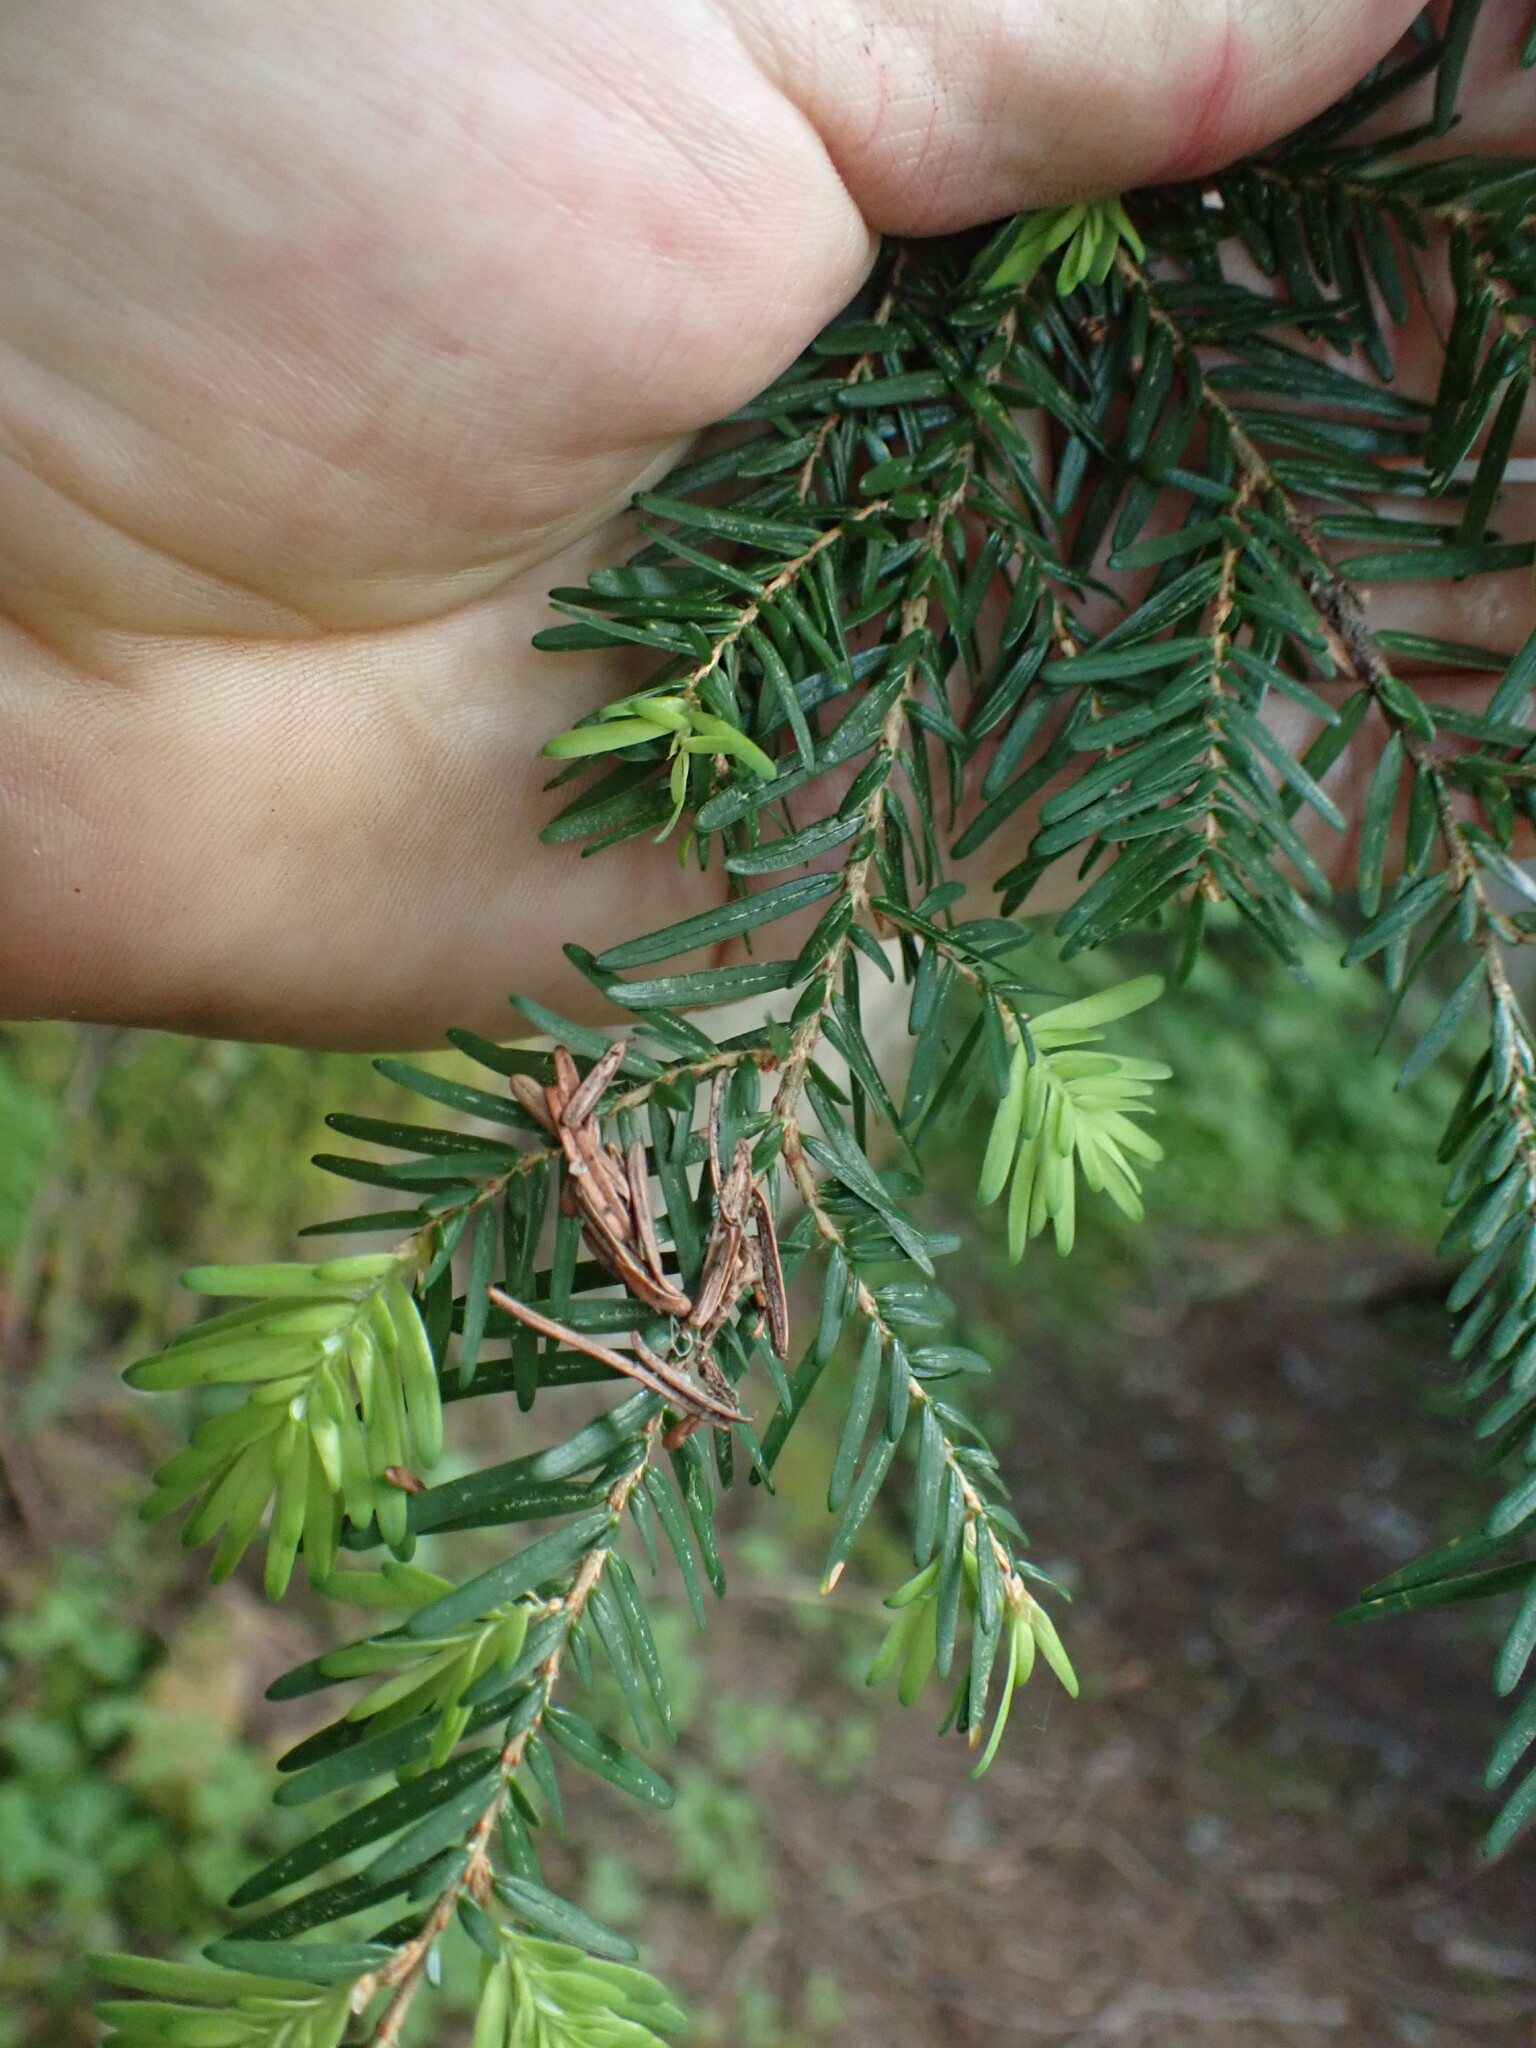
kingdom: Plantae
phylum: Tracheophyta
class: Pinopsida
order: Pinales
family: Pinaceae
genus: Tsuga
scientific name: Tsuga heterophylla
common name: Western hemlock
